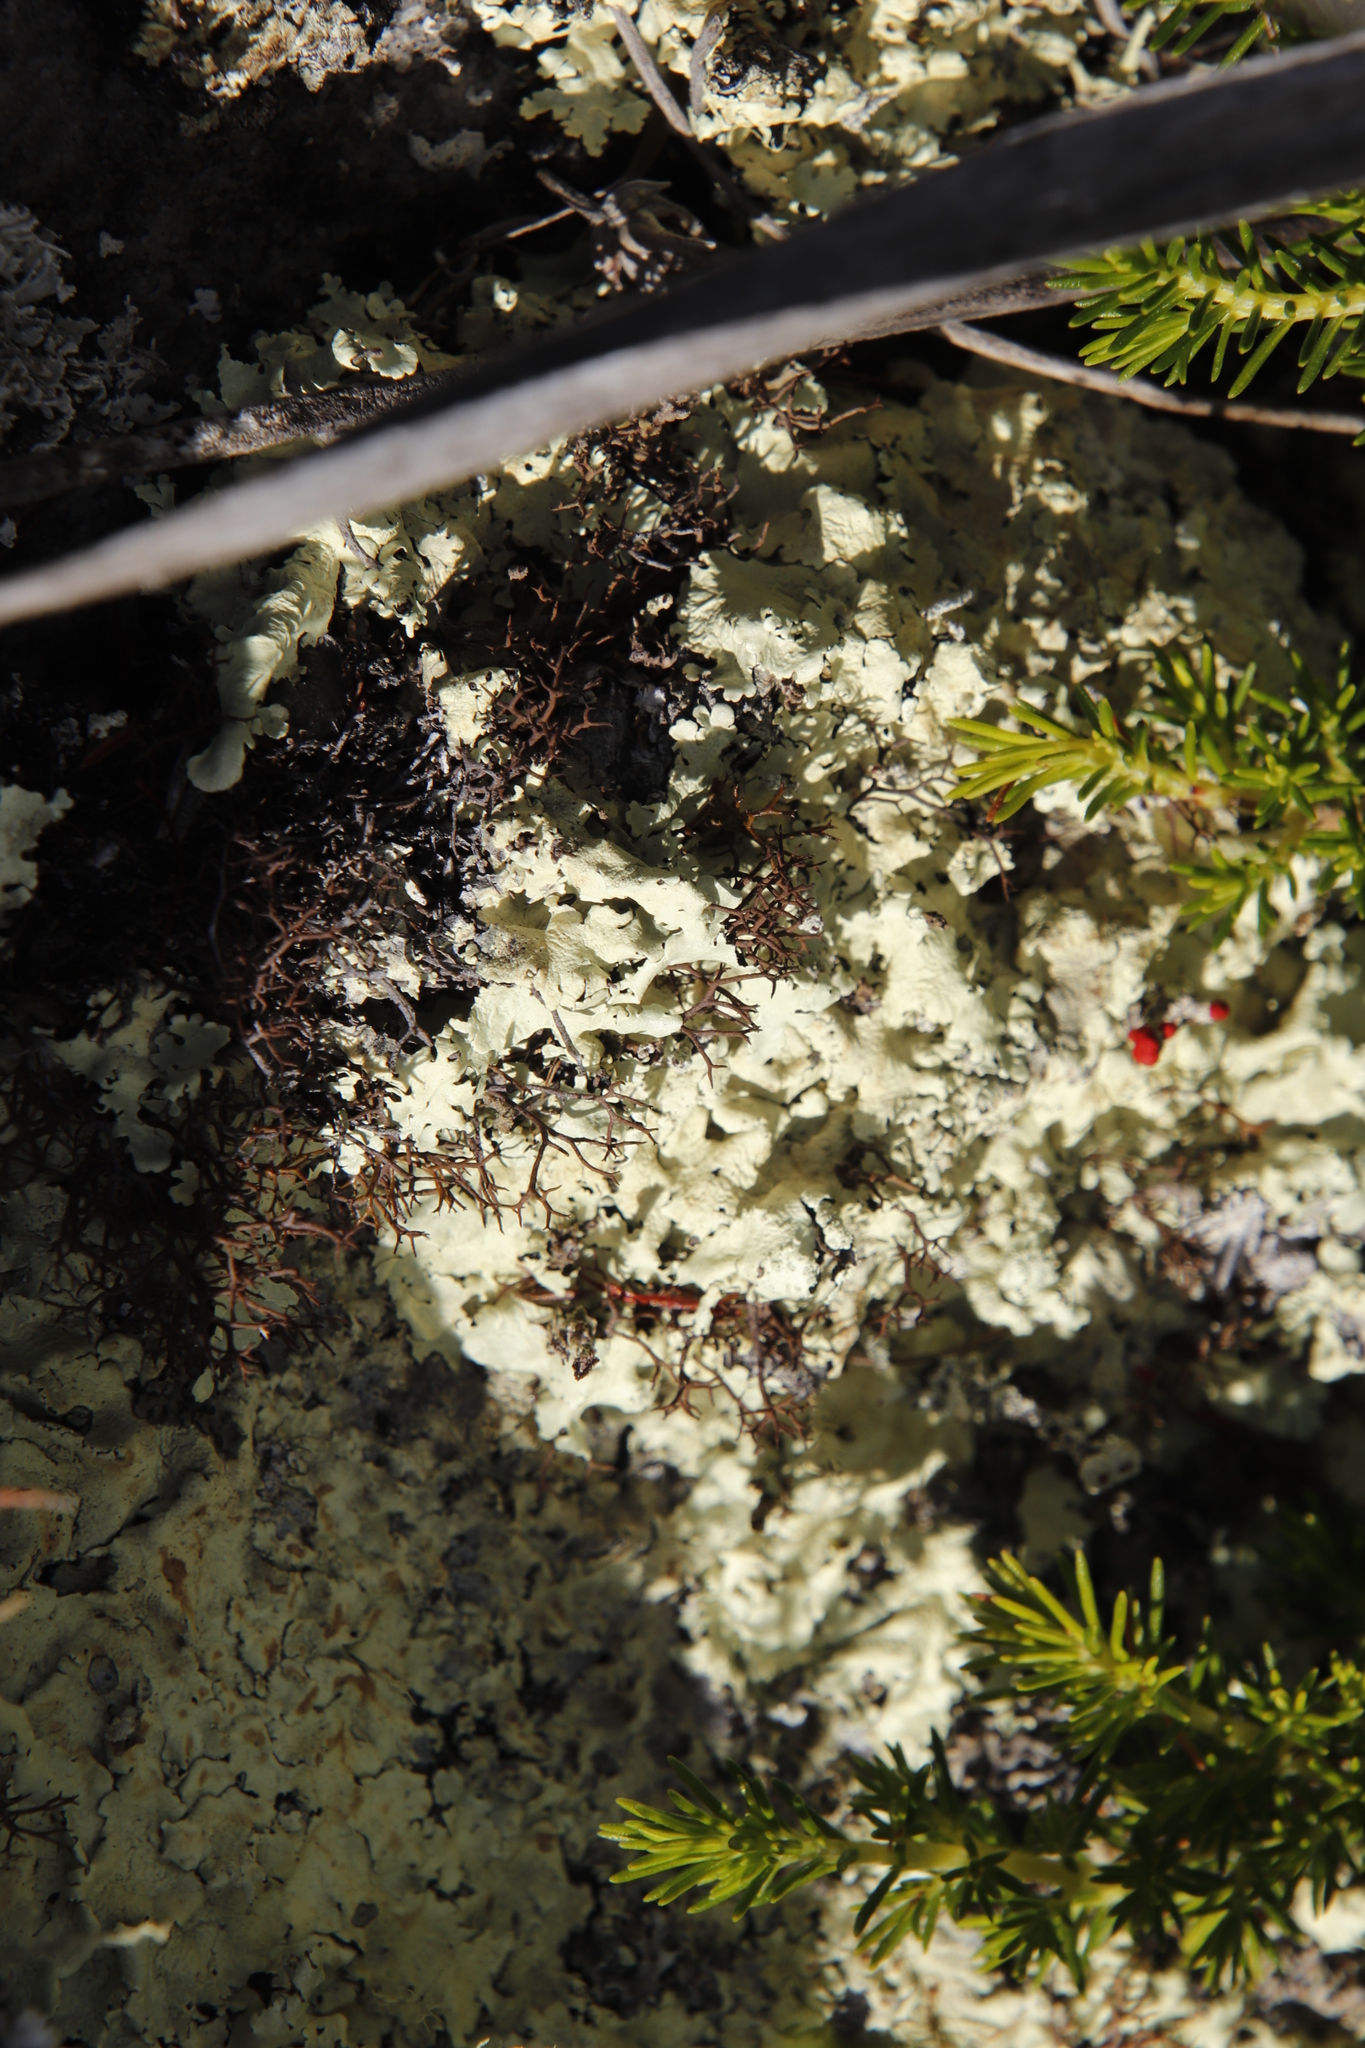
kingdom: Fungi
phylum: Ascomycota
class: Lecanoromycetes
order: Lecanorales
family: Cladoniaceae
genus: Cladia
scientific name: Cladia aggregata
